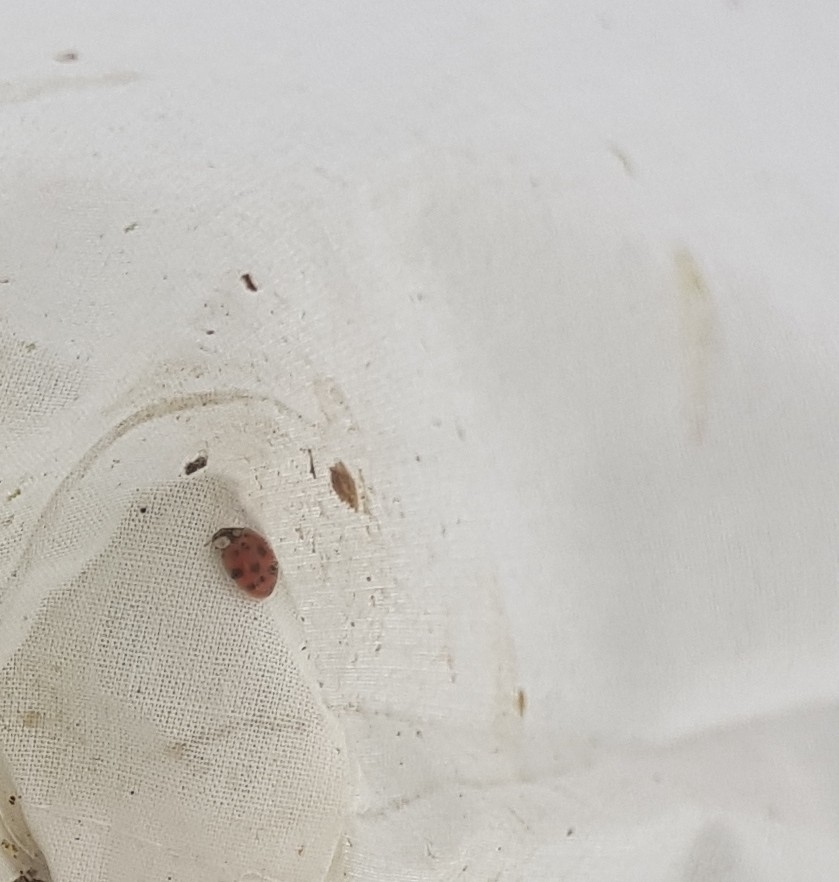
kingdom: Animalia
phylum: Arthropoda
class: Insecta
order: Coleoptera
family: Coccinellidae
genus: Harmonia
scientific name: Harmonia axyridis
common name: Harlequin ladybird
